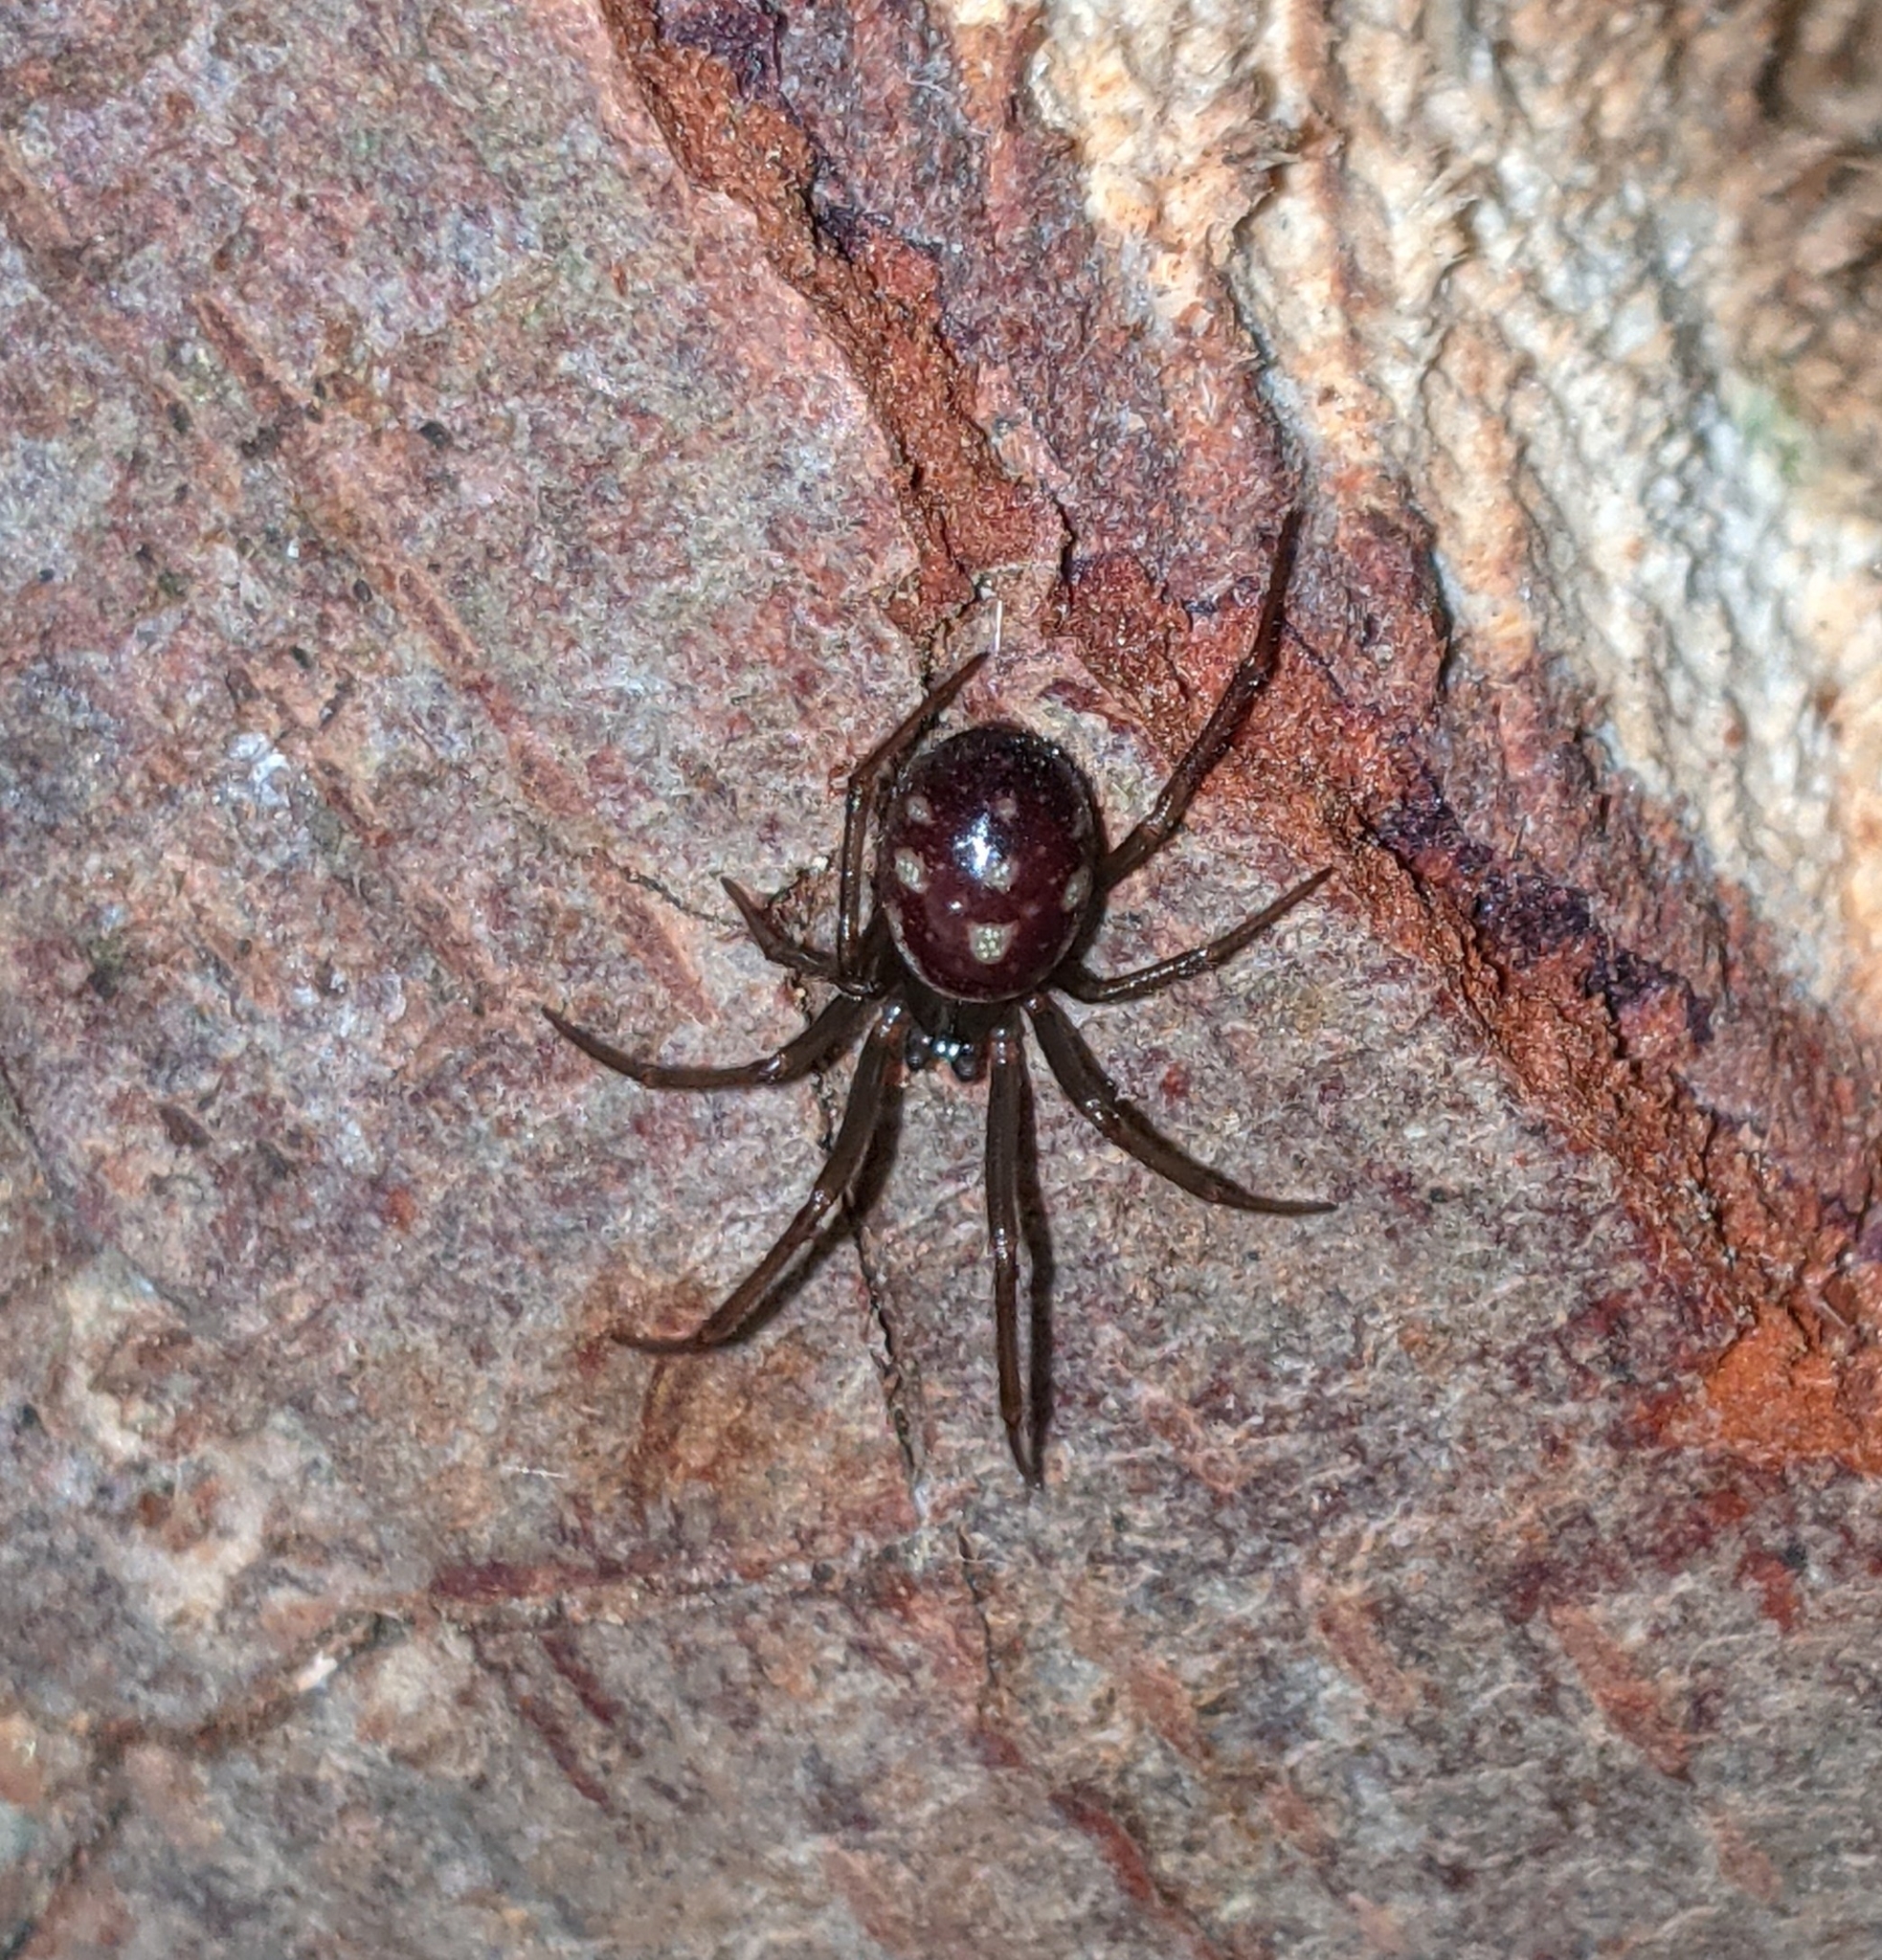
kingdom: Animalia
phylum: Arthropoda
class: Arachnida
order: Araneae
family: Theridiidae
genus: Steatoda
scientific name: Steatoda grossa
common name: False black widow
